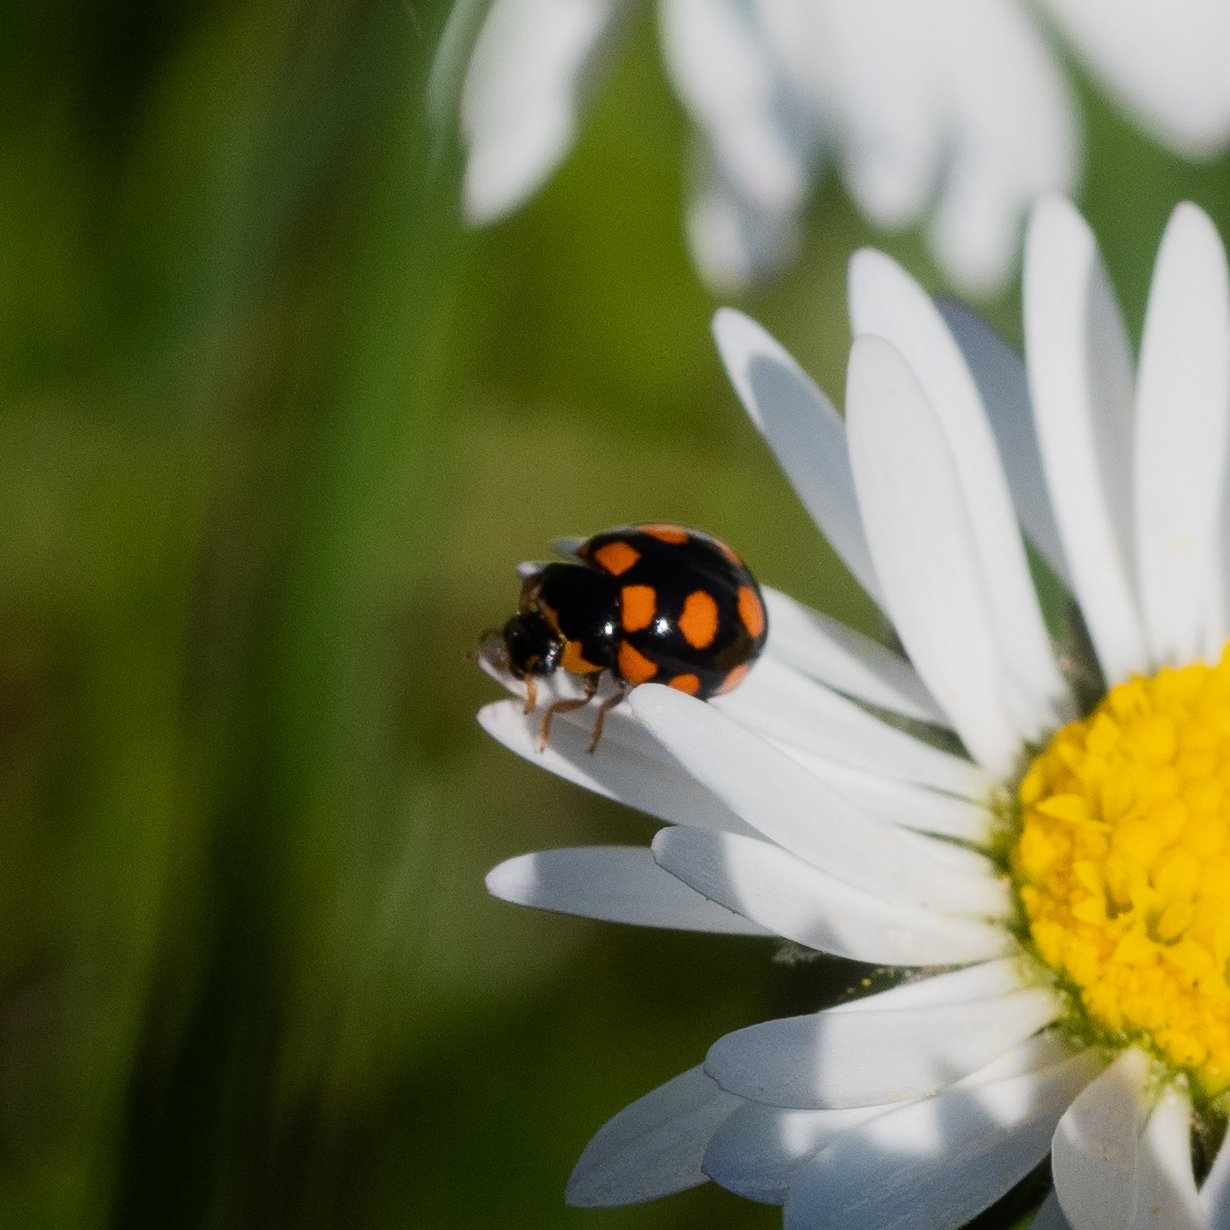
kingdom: Animalia
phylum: Arthropoda
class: Insecta
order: Coleoptera
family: Coccinellidae
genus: Coccinula
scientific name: Coccinula quatuordecimpustulata
